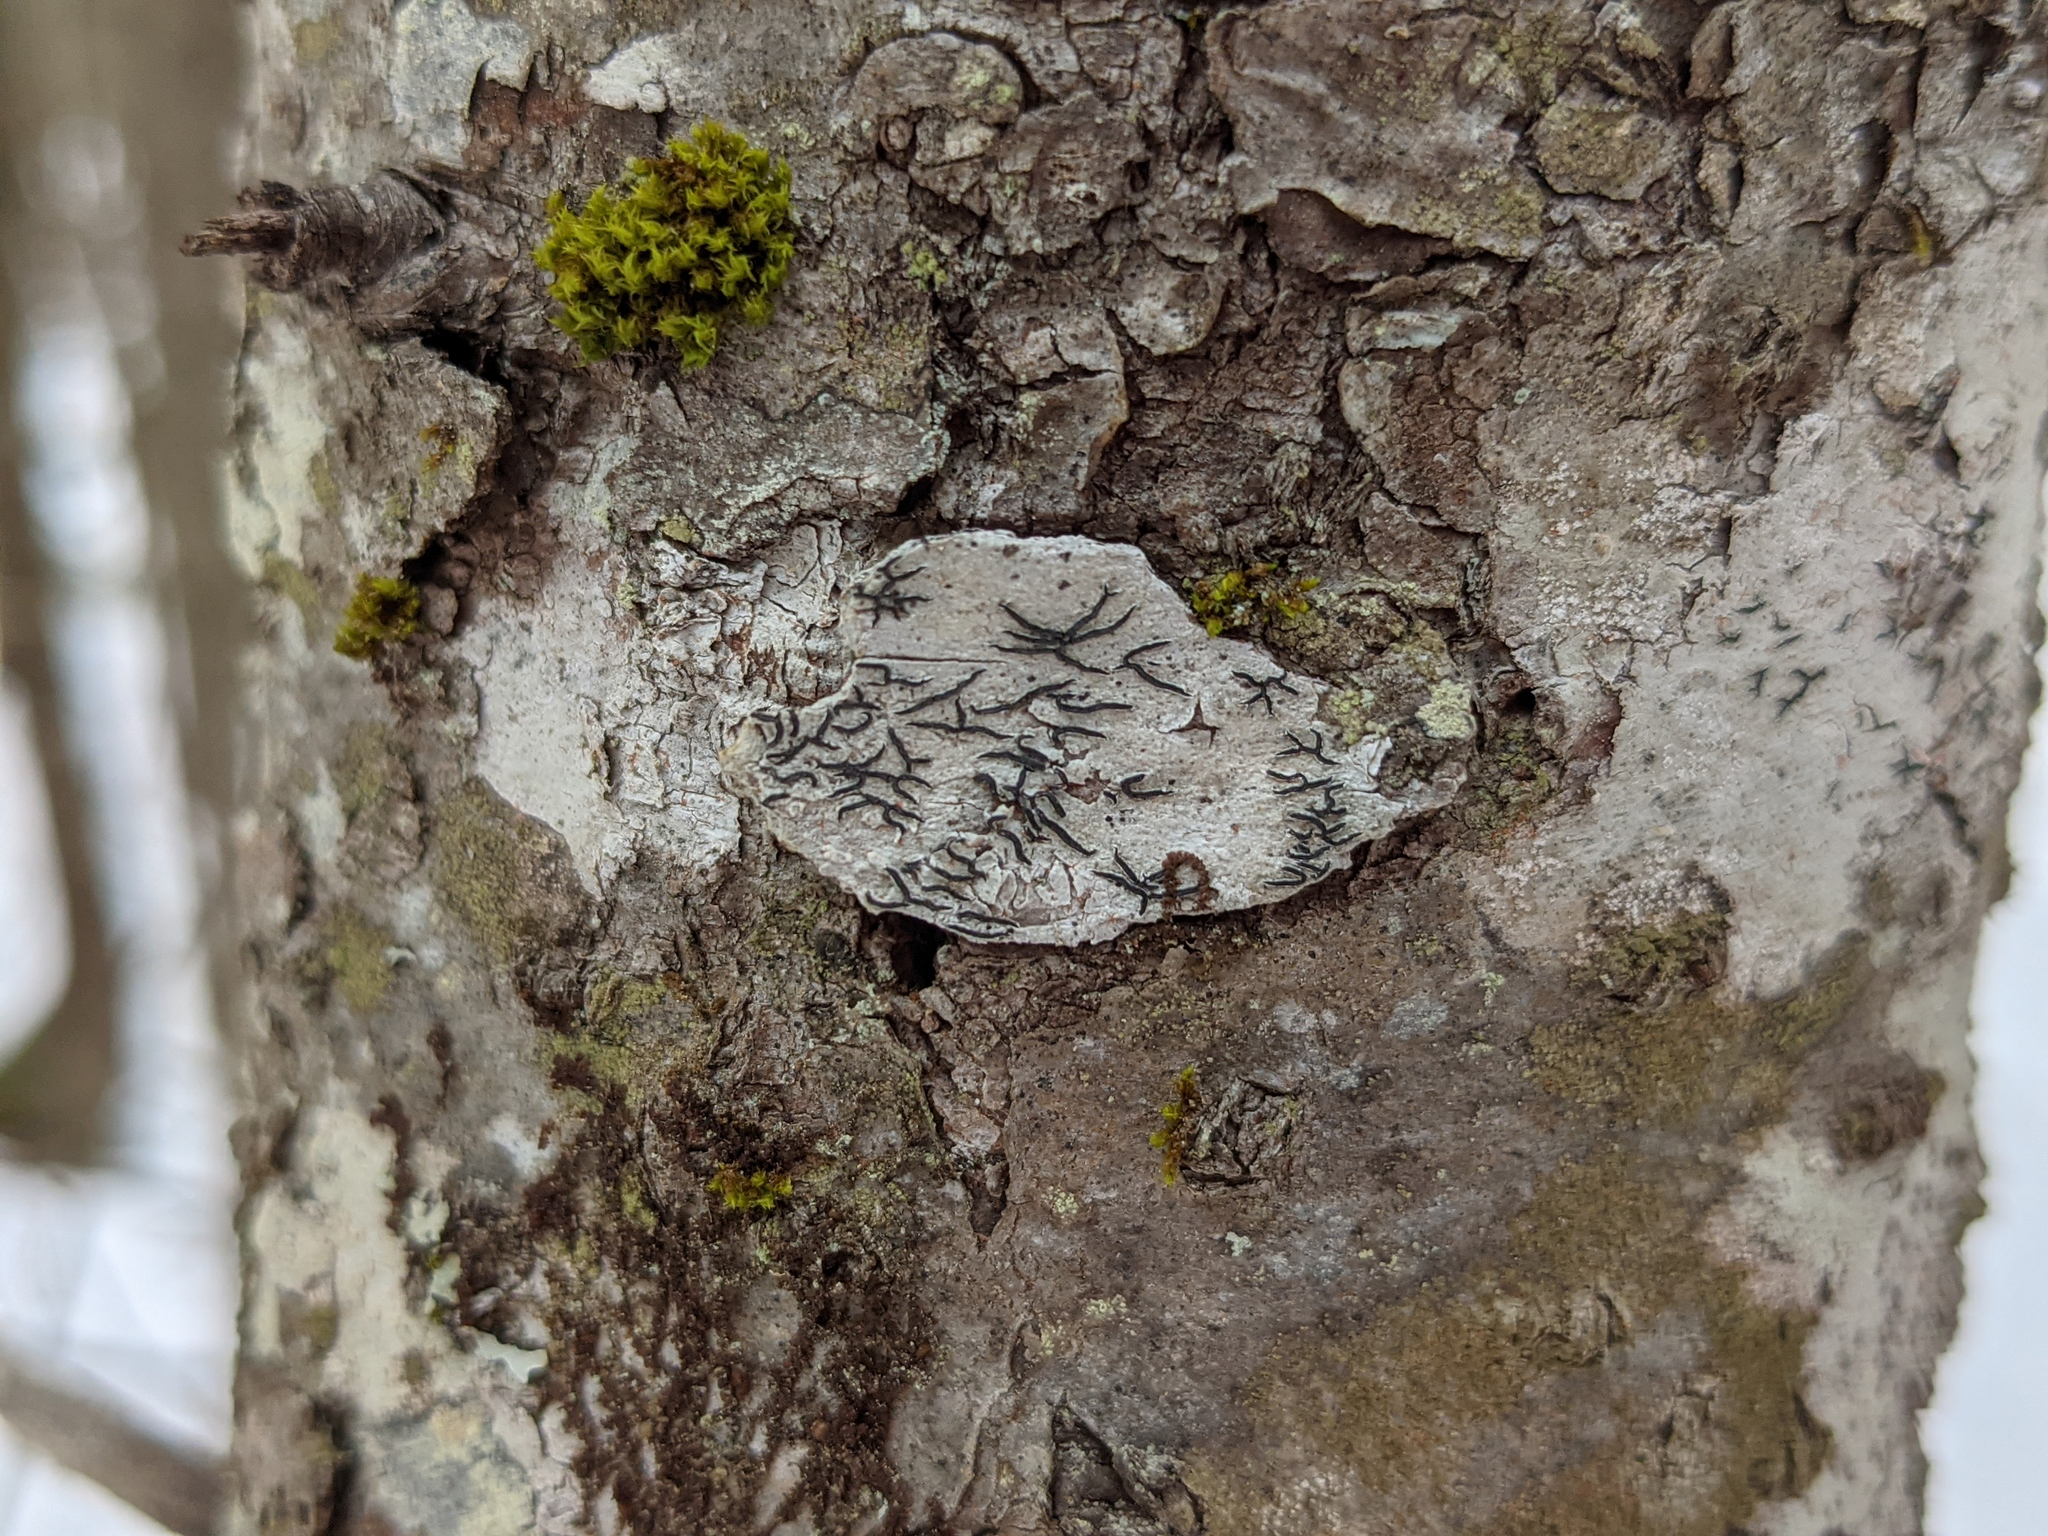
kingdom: Plantae
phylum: Bryophyta
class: Bryopsida
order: Orthotrichales
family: Orthotrichaceae
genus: Ulota
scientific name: Ulota crispa
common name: Crisped pincushion moss
